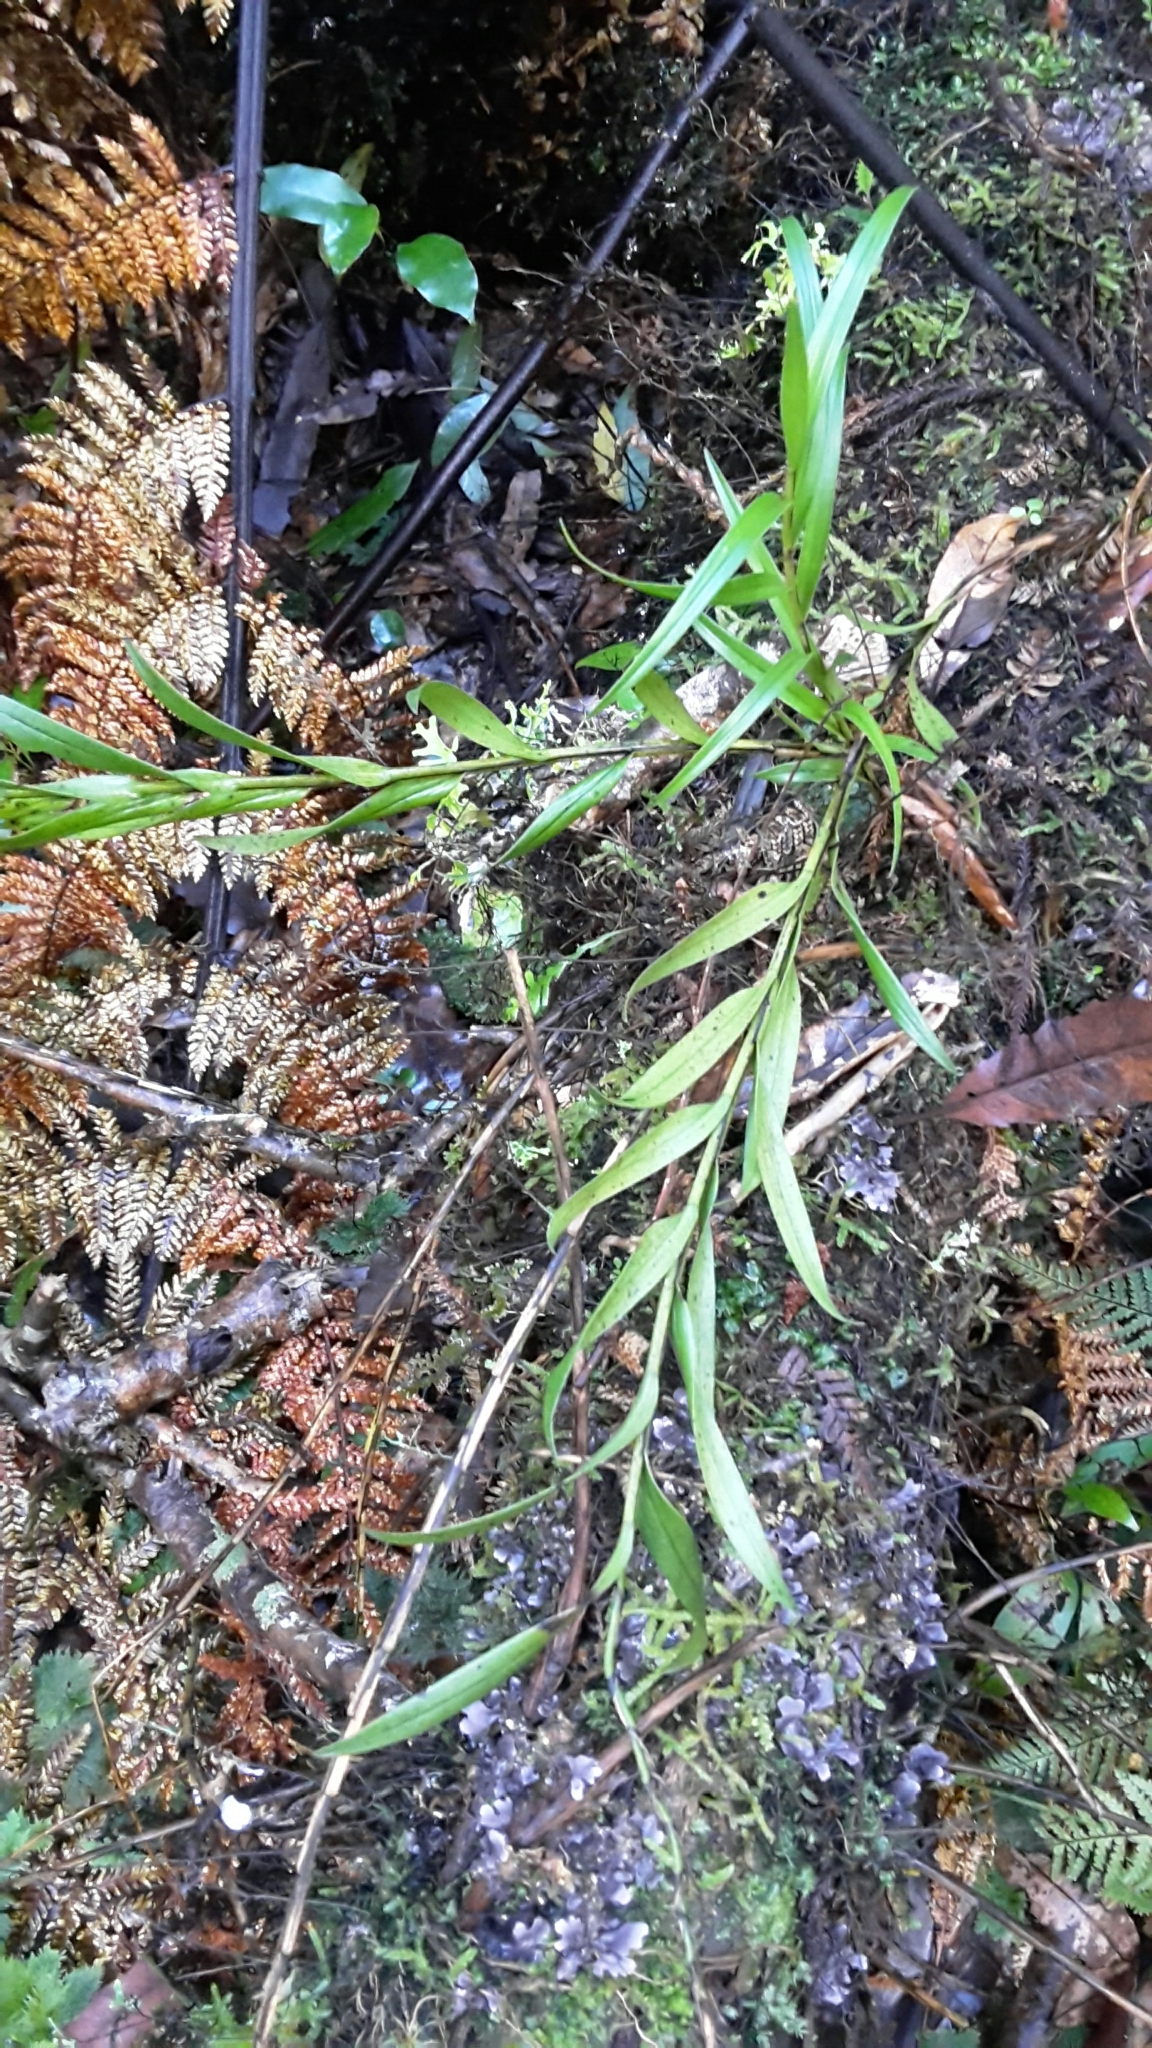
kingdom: Plantae
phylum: Tracheophyta
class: Liliopsida
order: Asparagales
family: Orchidaceae
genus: Earina
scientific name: Earina autumnalis
